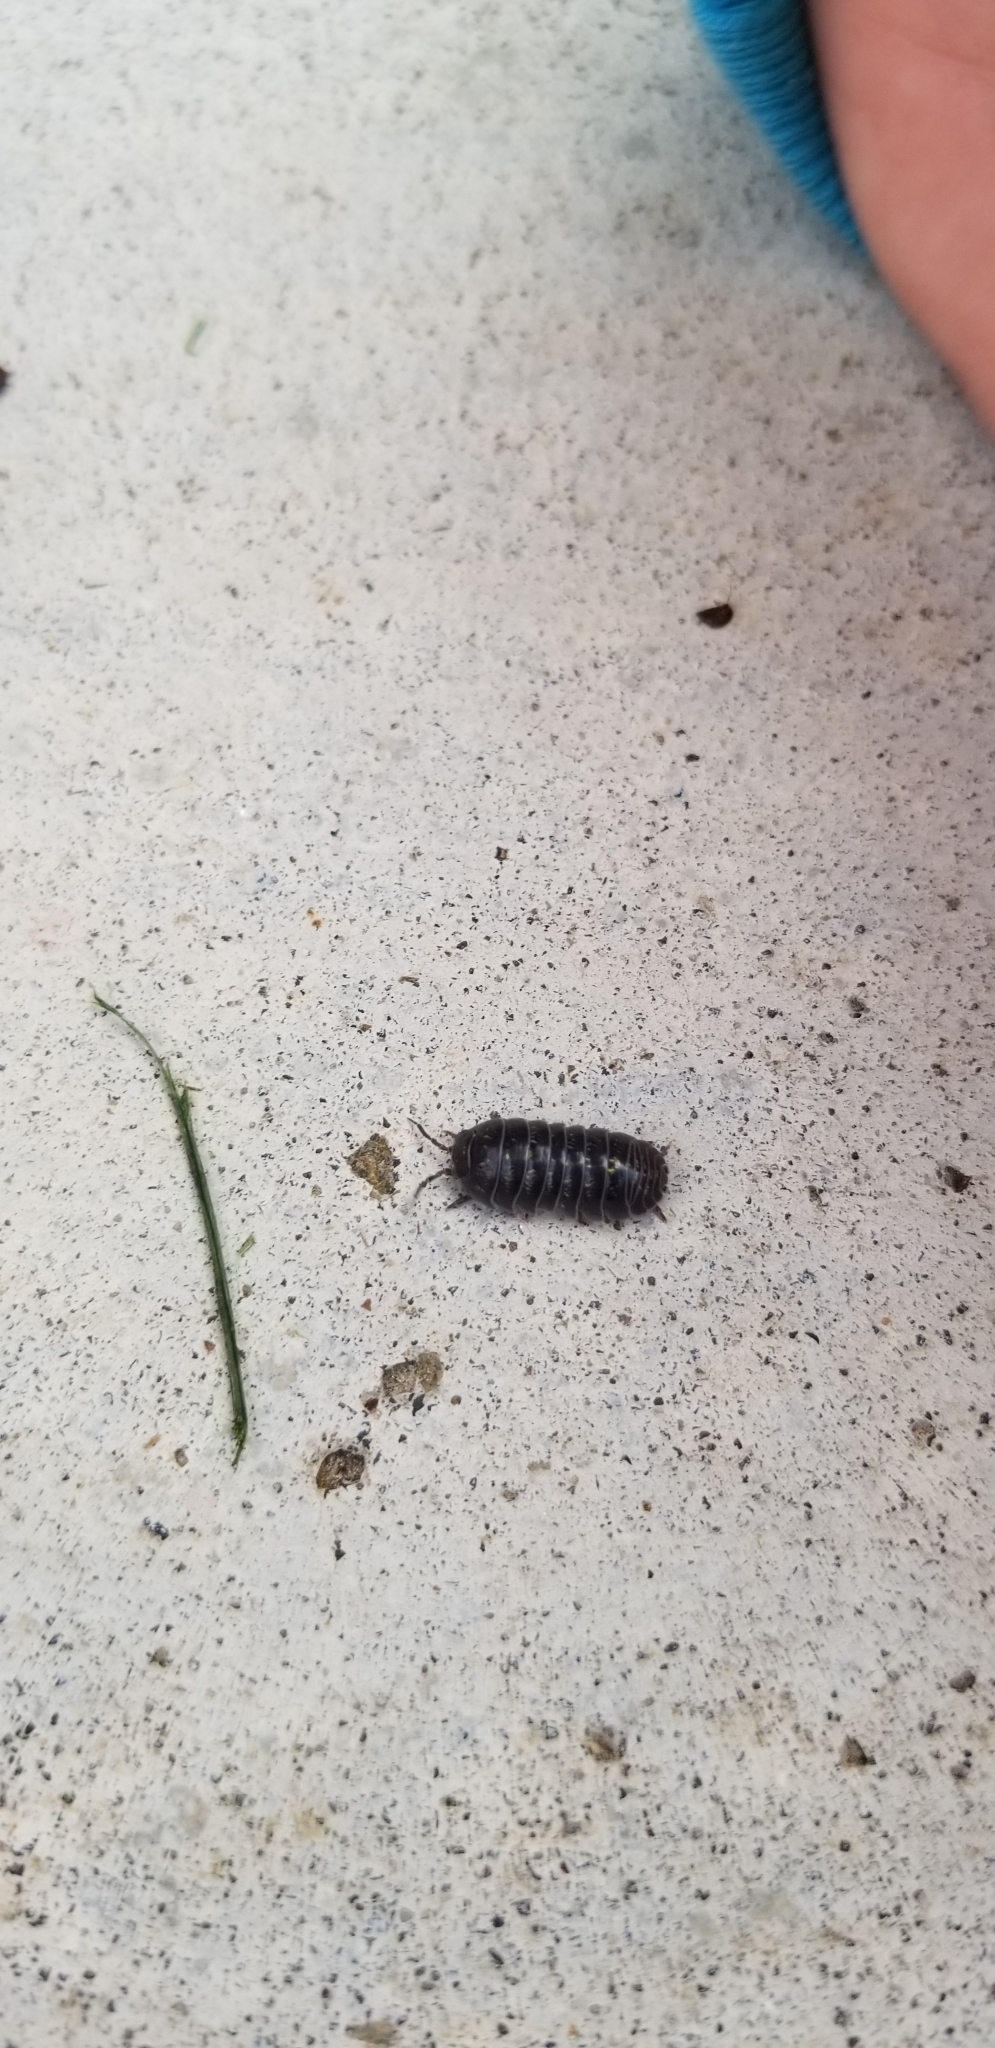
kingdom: Animalia
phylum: Arthropoda
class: Malacostraca
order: Isopoda
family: Armadillidiidae
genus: Armadillidium
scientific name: Armadillidium vulgare
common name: Common pill woodlouse
